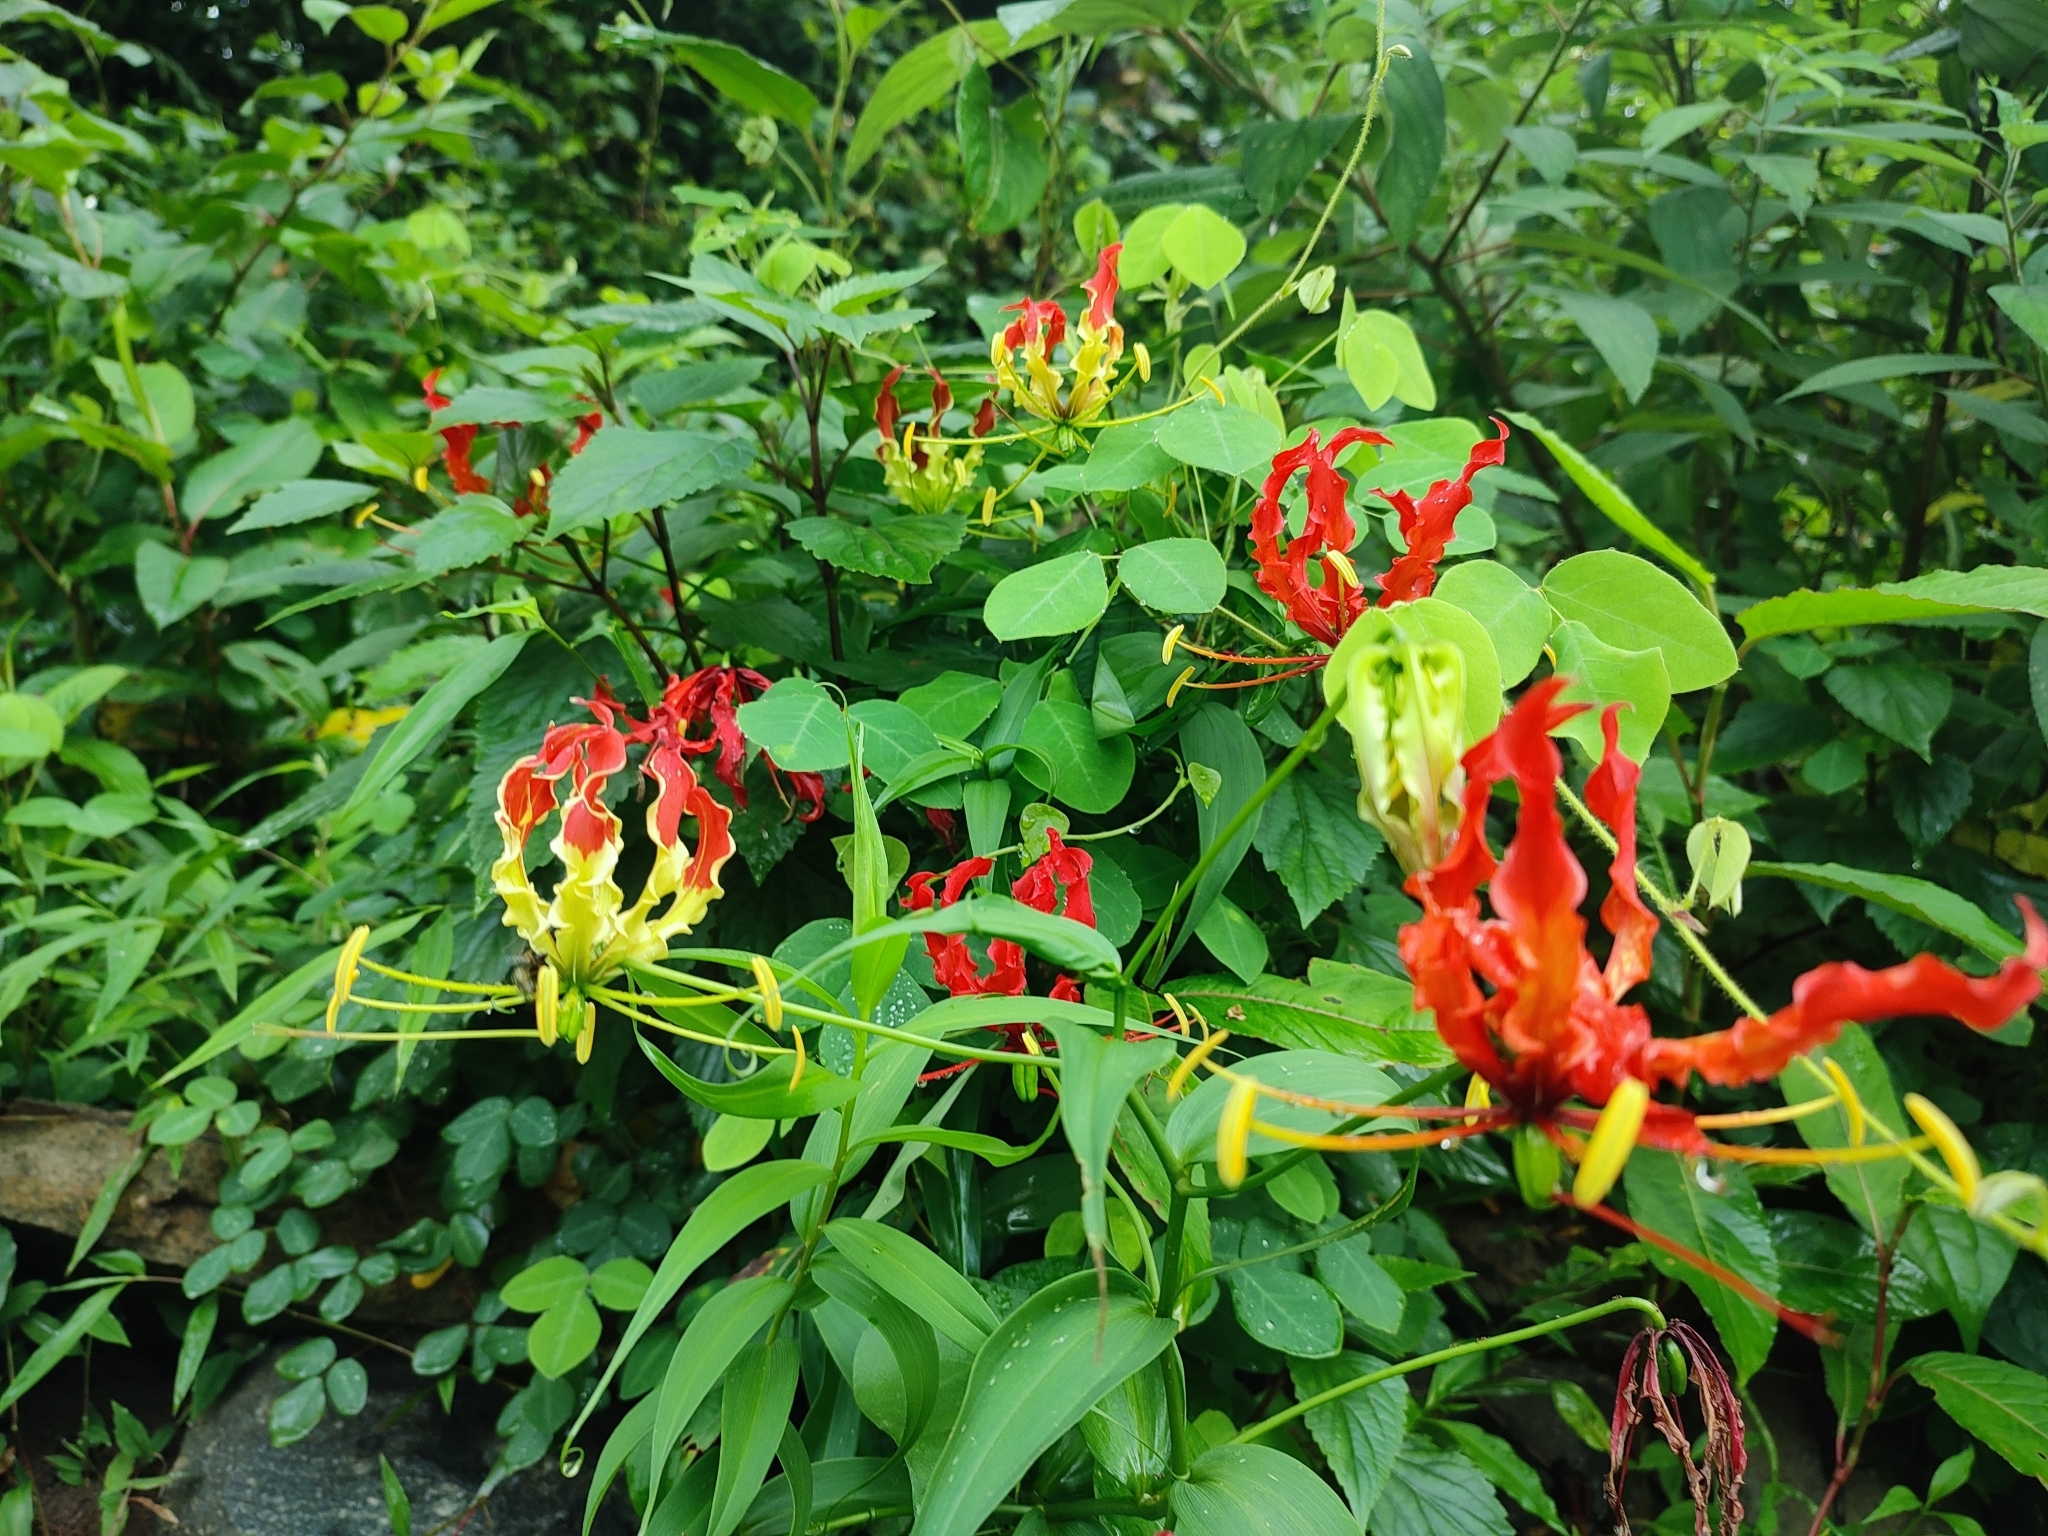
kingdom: Plantae
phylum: Tracheophyta
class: Liliopsida
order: Liliales
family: Colchicaceae
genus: Gloriosa
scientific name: Gloriosa superba
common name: Flame lily
